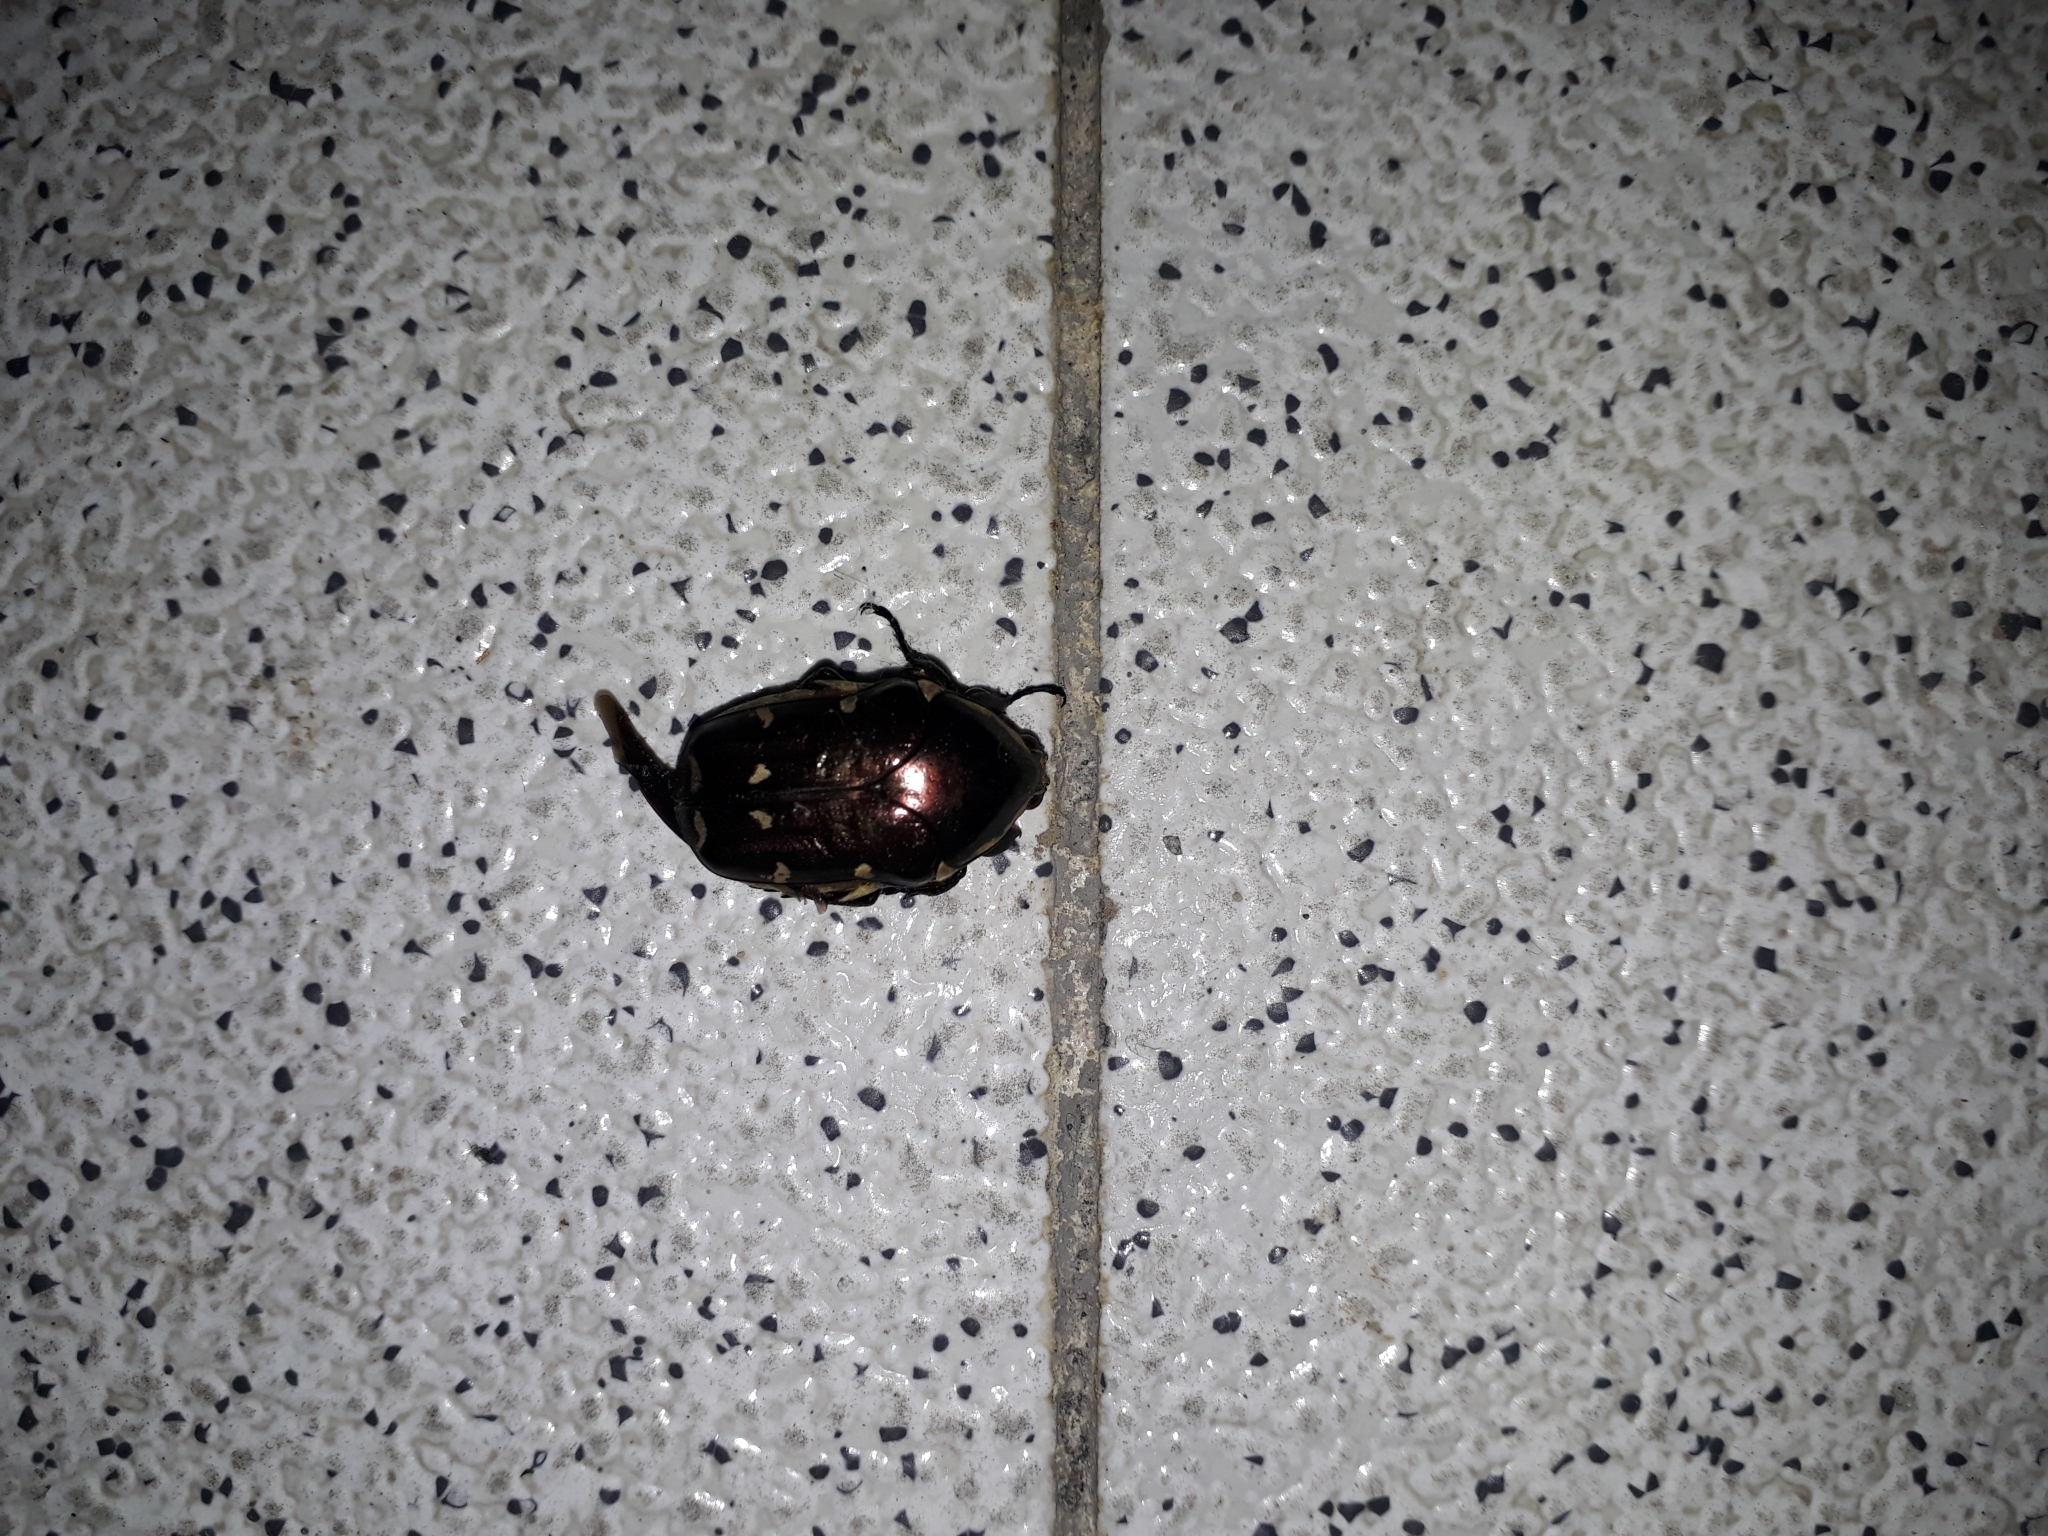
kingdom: Animalia
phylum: Arthropoda
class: Insecta
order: Coleoptera
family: Scarabaeidae
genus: Amithao
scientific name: Amithao decemguttatus
